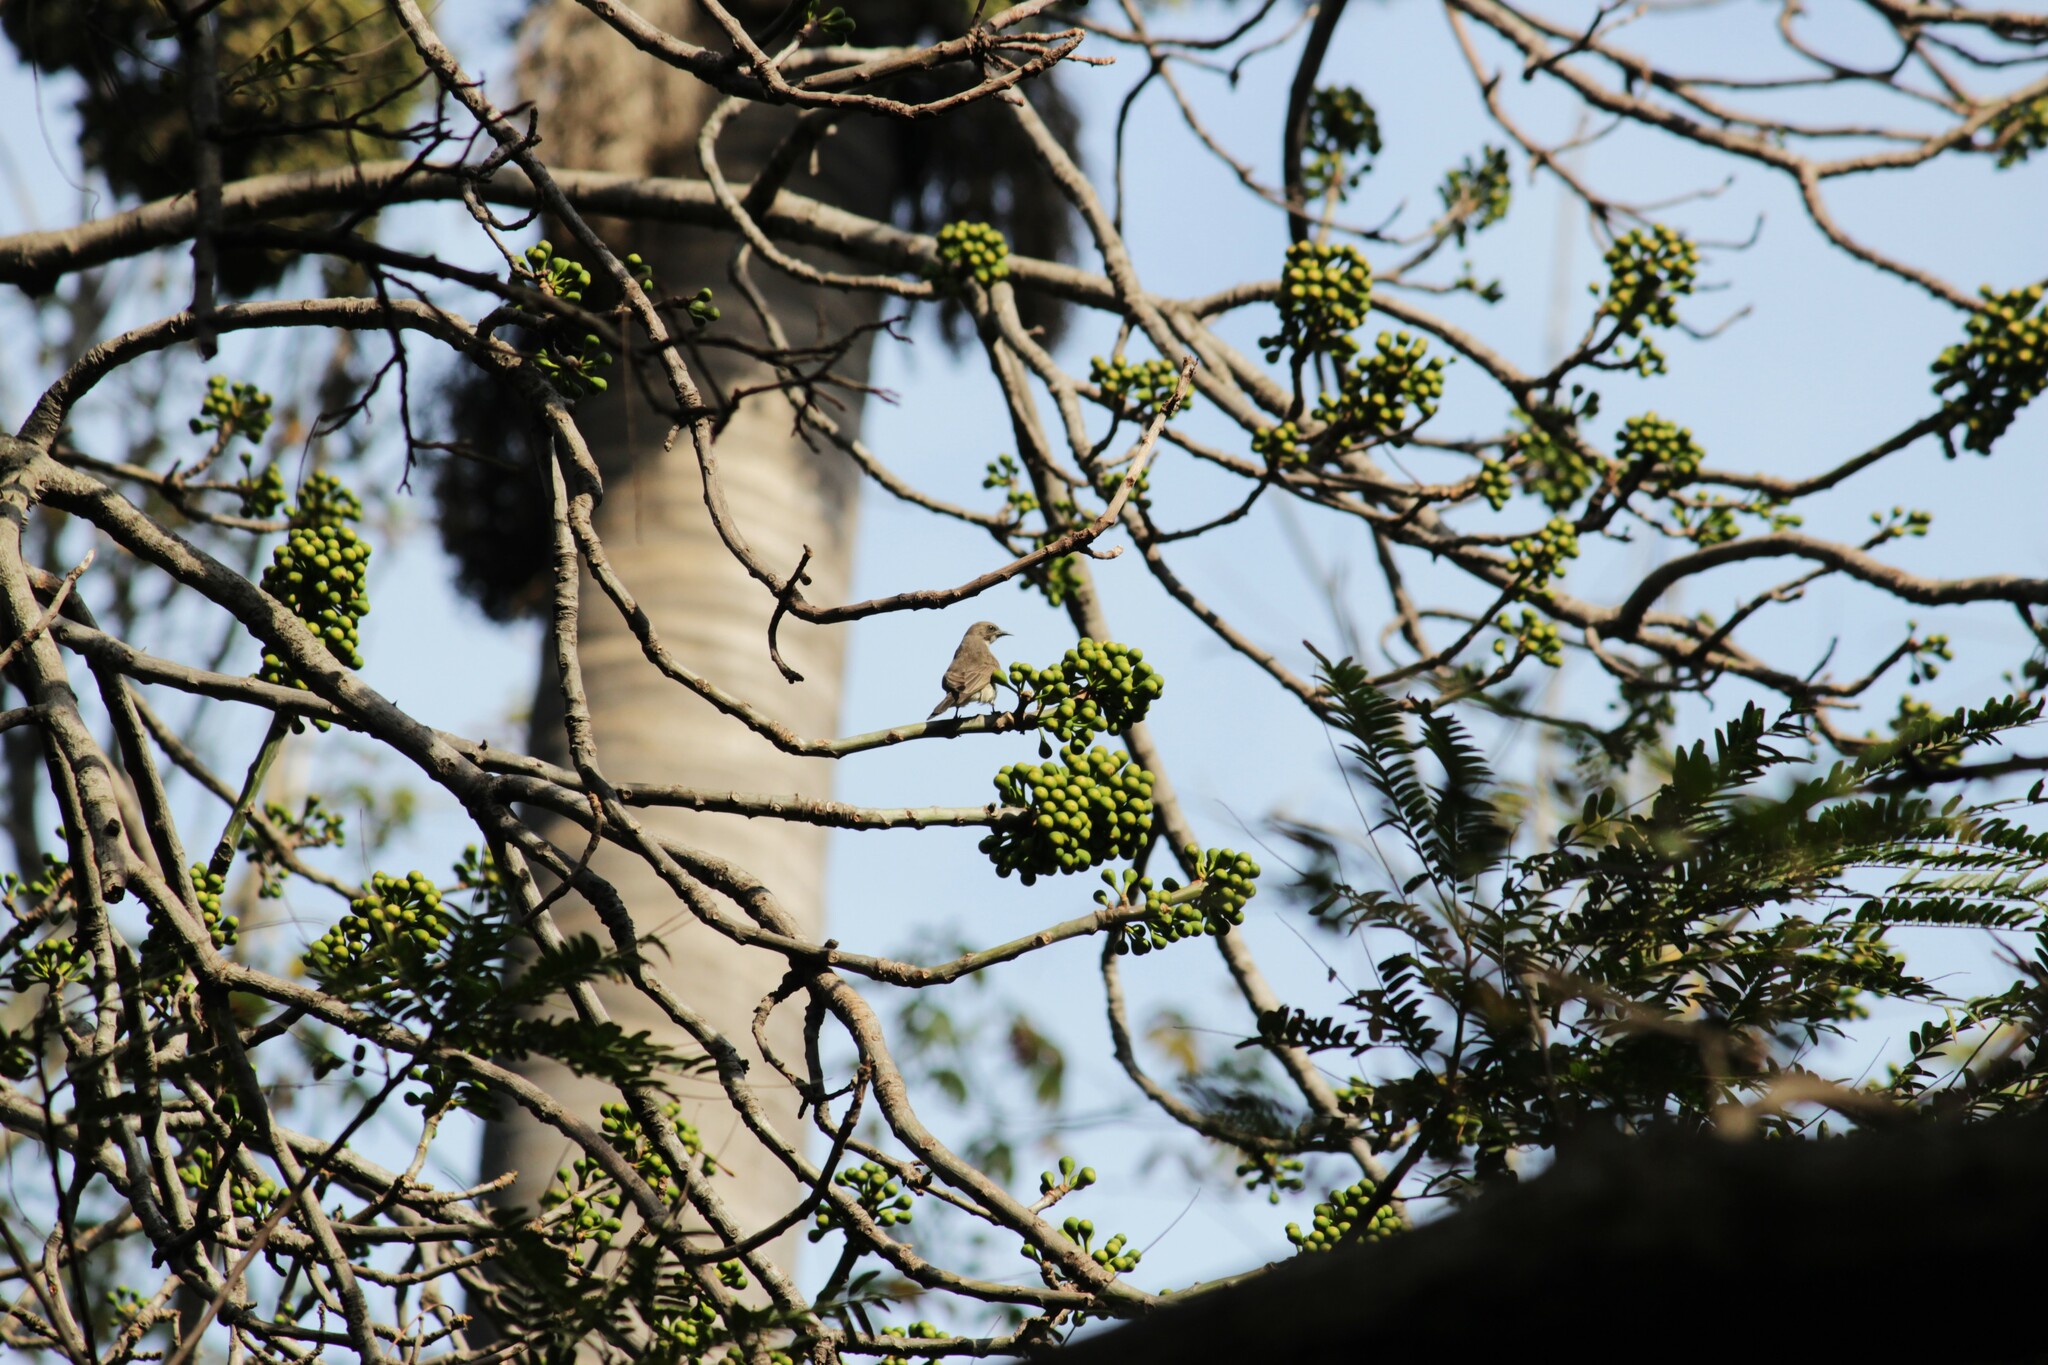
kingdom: Animalia
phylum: Chordata
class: Aves
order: Piciformes
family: Indicatoridae
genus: Prodotiscus
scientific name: Prodotiscus regulus
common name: Brown-backed honeybird
